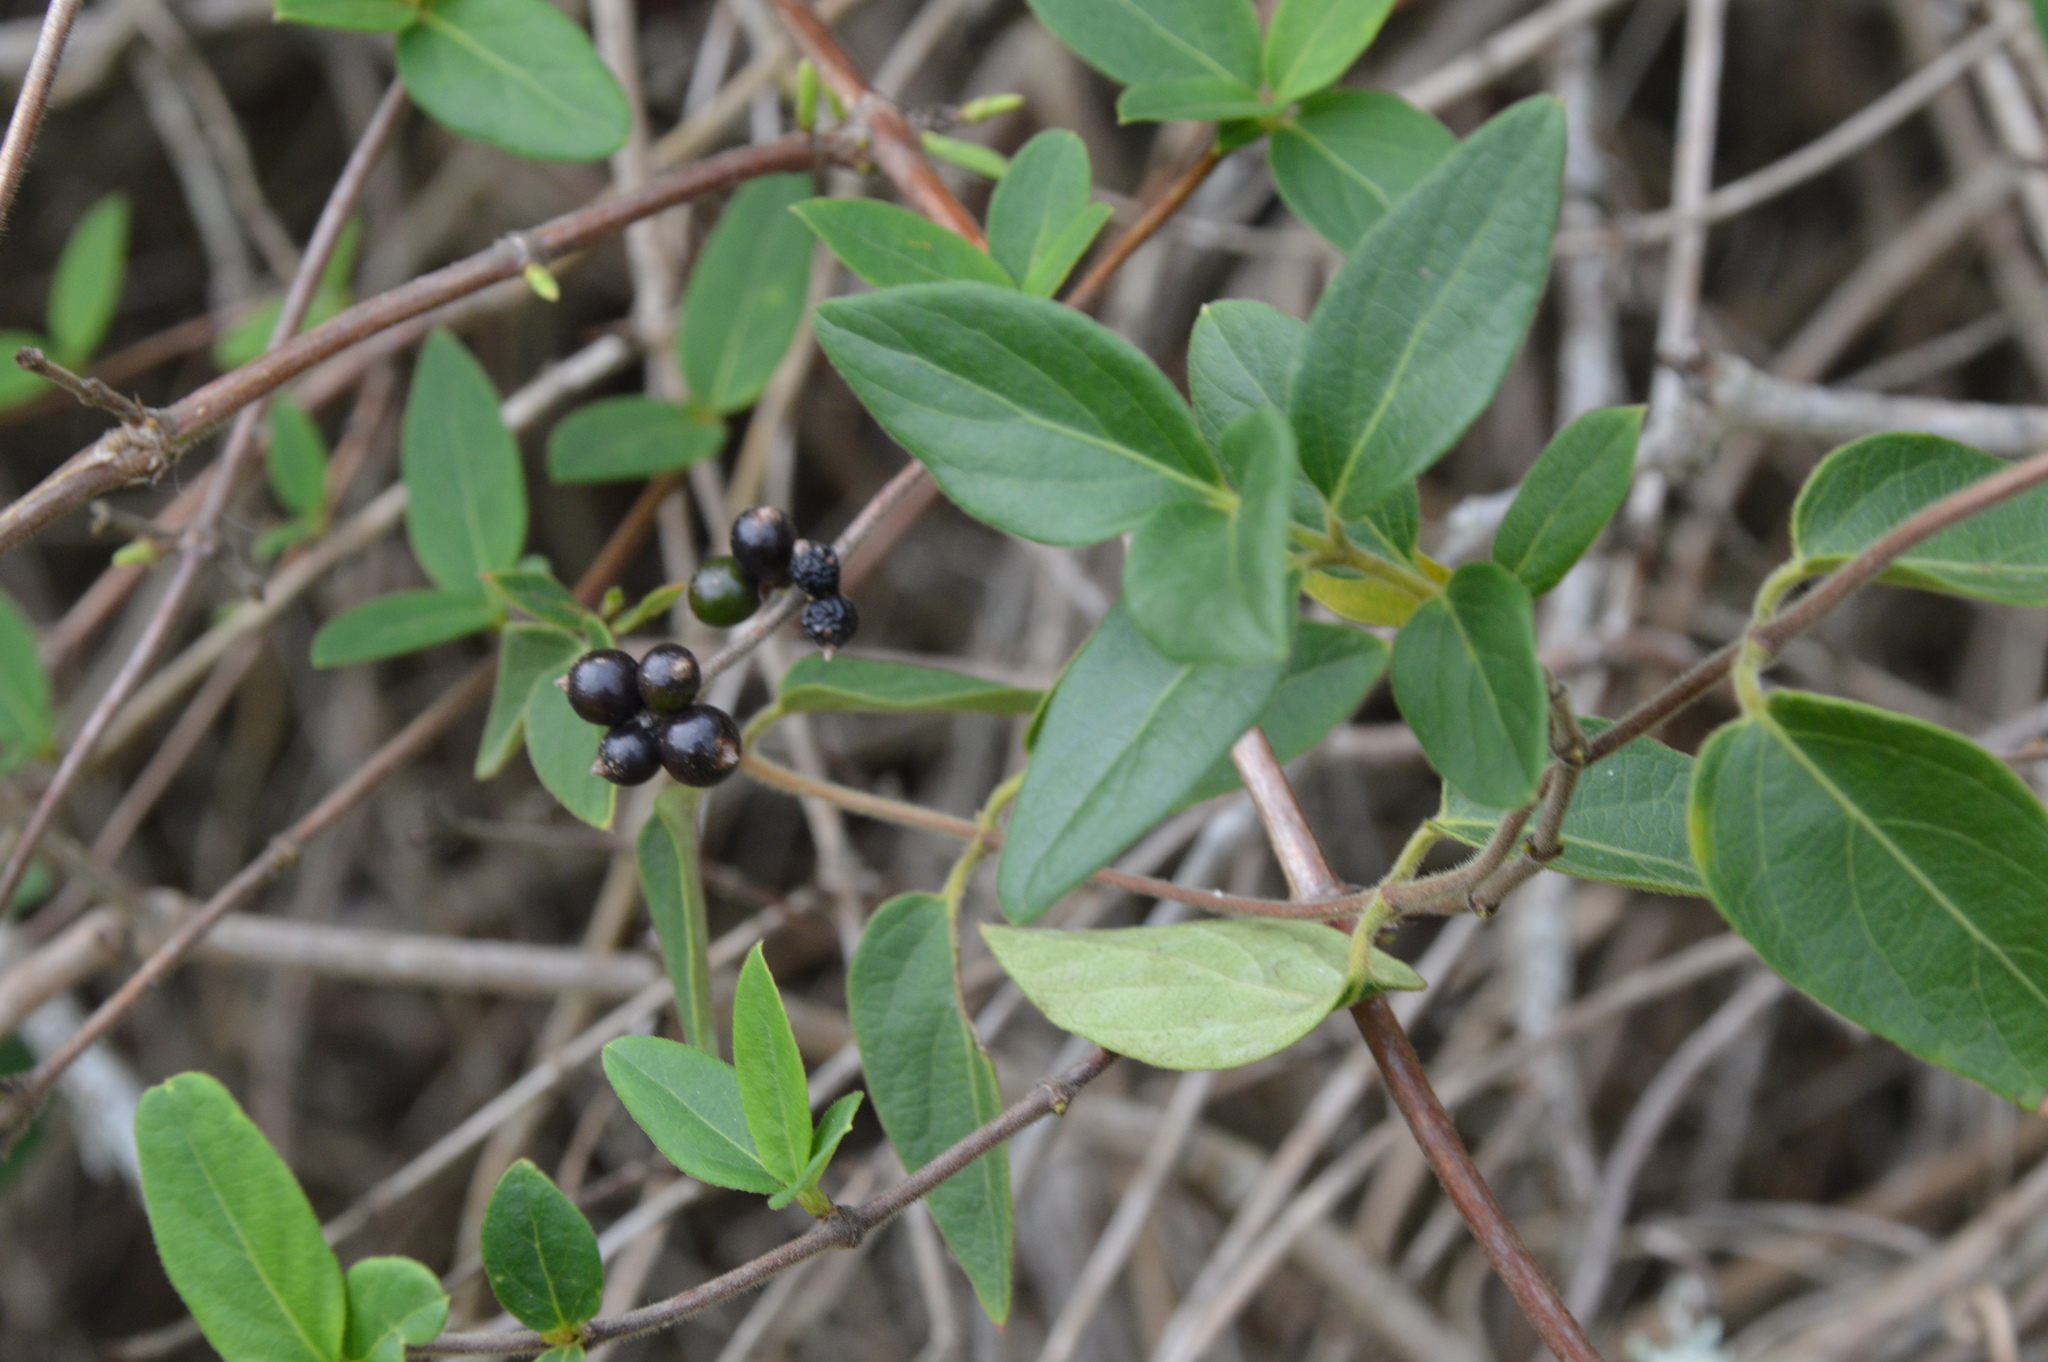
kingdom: Plantae
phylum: Tracheophyta
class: Magnoliopsida
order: Dipsacales
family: Caprifoliaceae
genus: Lonicera
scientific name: Lonicera japonica
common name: Japanese honeysuckle
